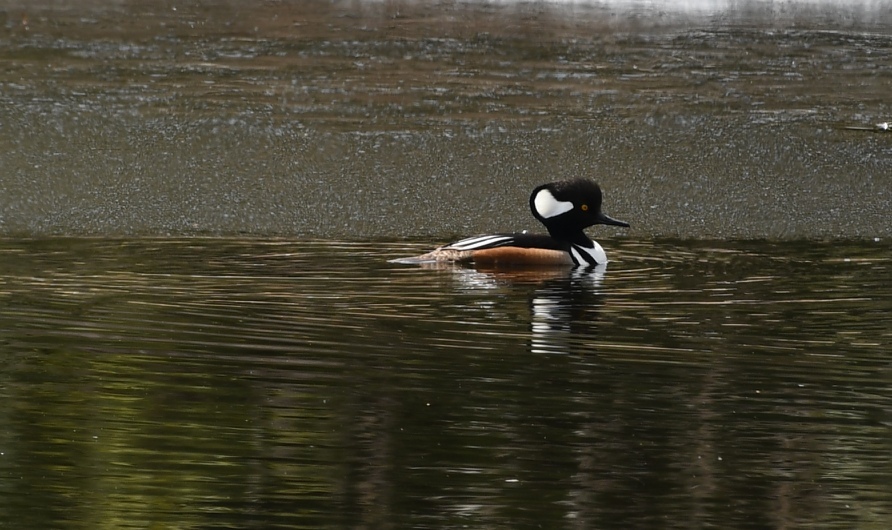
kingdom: Animalia
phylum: Chordata
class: Aves
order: Anseriformes
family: Anatidae
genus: Lophodytes
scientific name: Lophodytes cucullatus
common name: Hooded merganser
